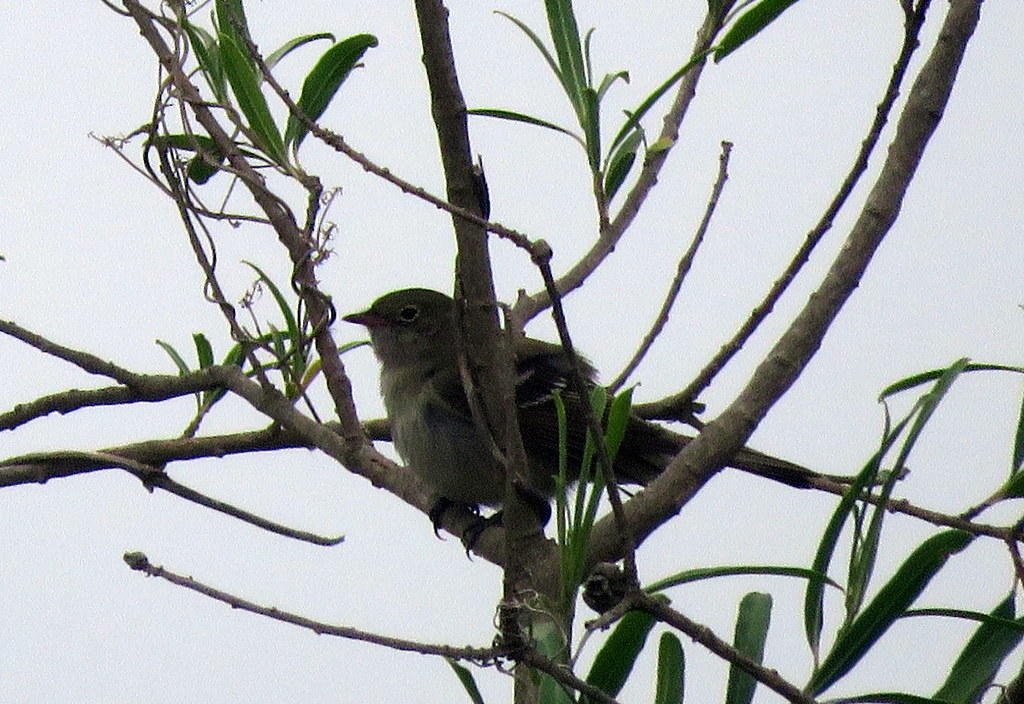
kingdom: Animalia
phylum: Chordata
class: Aves
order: Passeriformes
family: Tyrannidae
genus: Elaenia
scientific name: Elaenia parvirostris
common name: Small-billed elaenia
